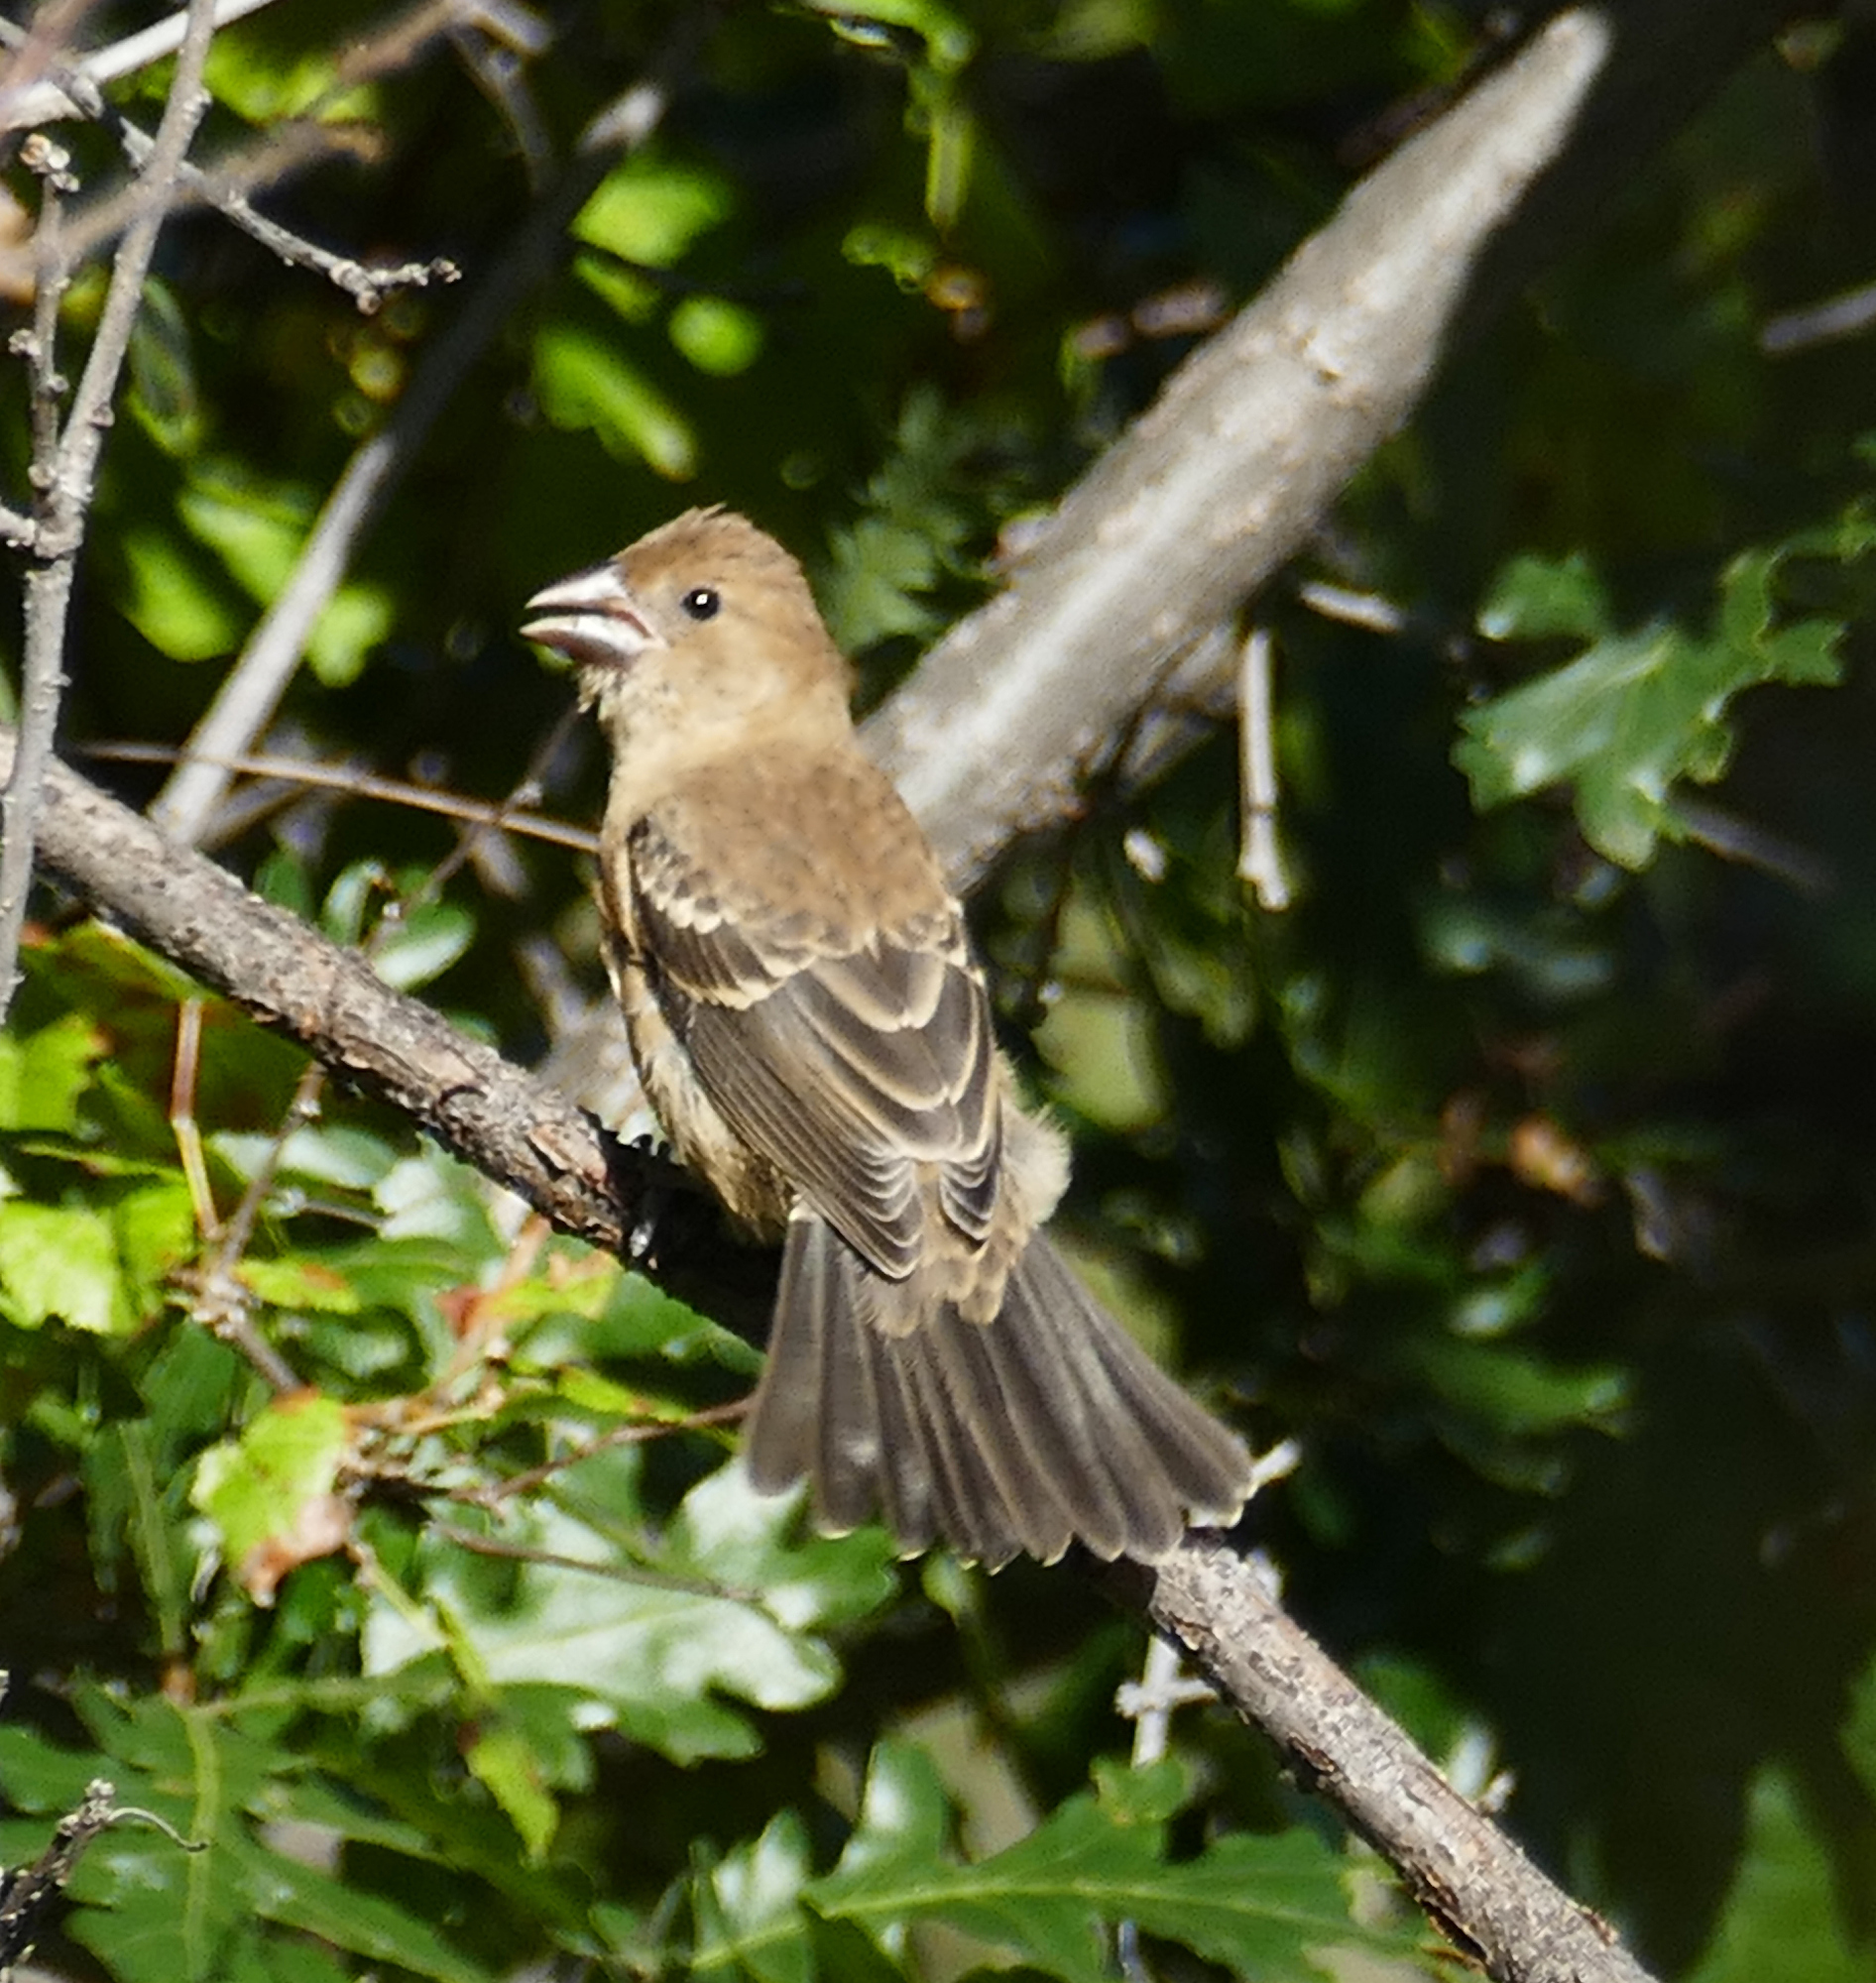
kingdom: Animalia
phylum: Chordata
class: Aves
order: Passeriformes
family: Cardinalidae
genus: Passerina
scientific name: Passerina caerulea
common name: Blue grosbeak
